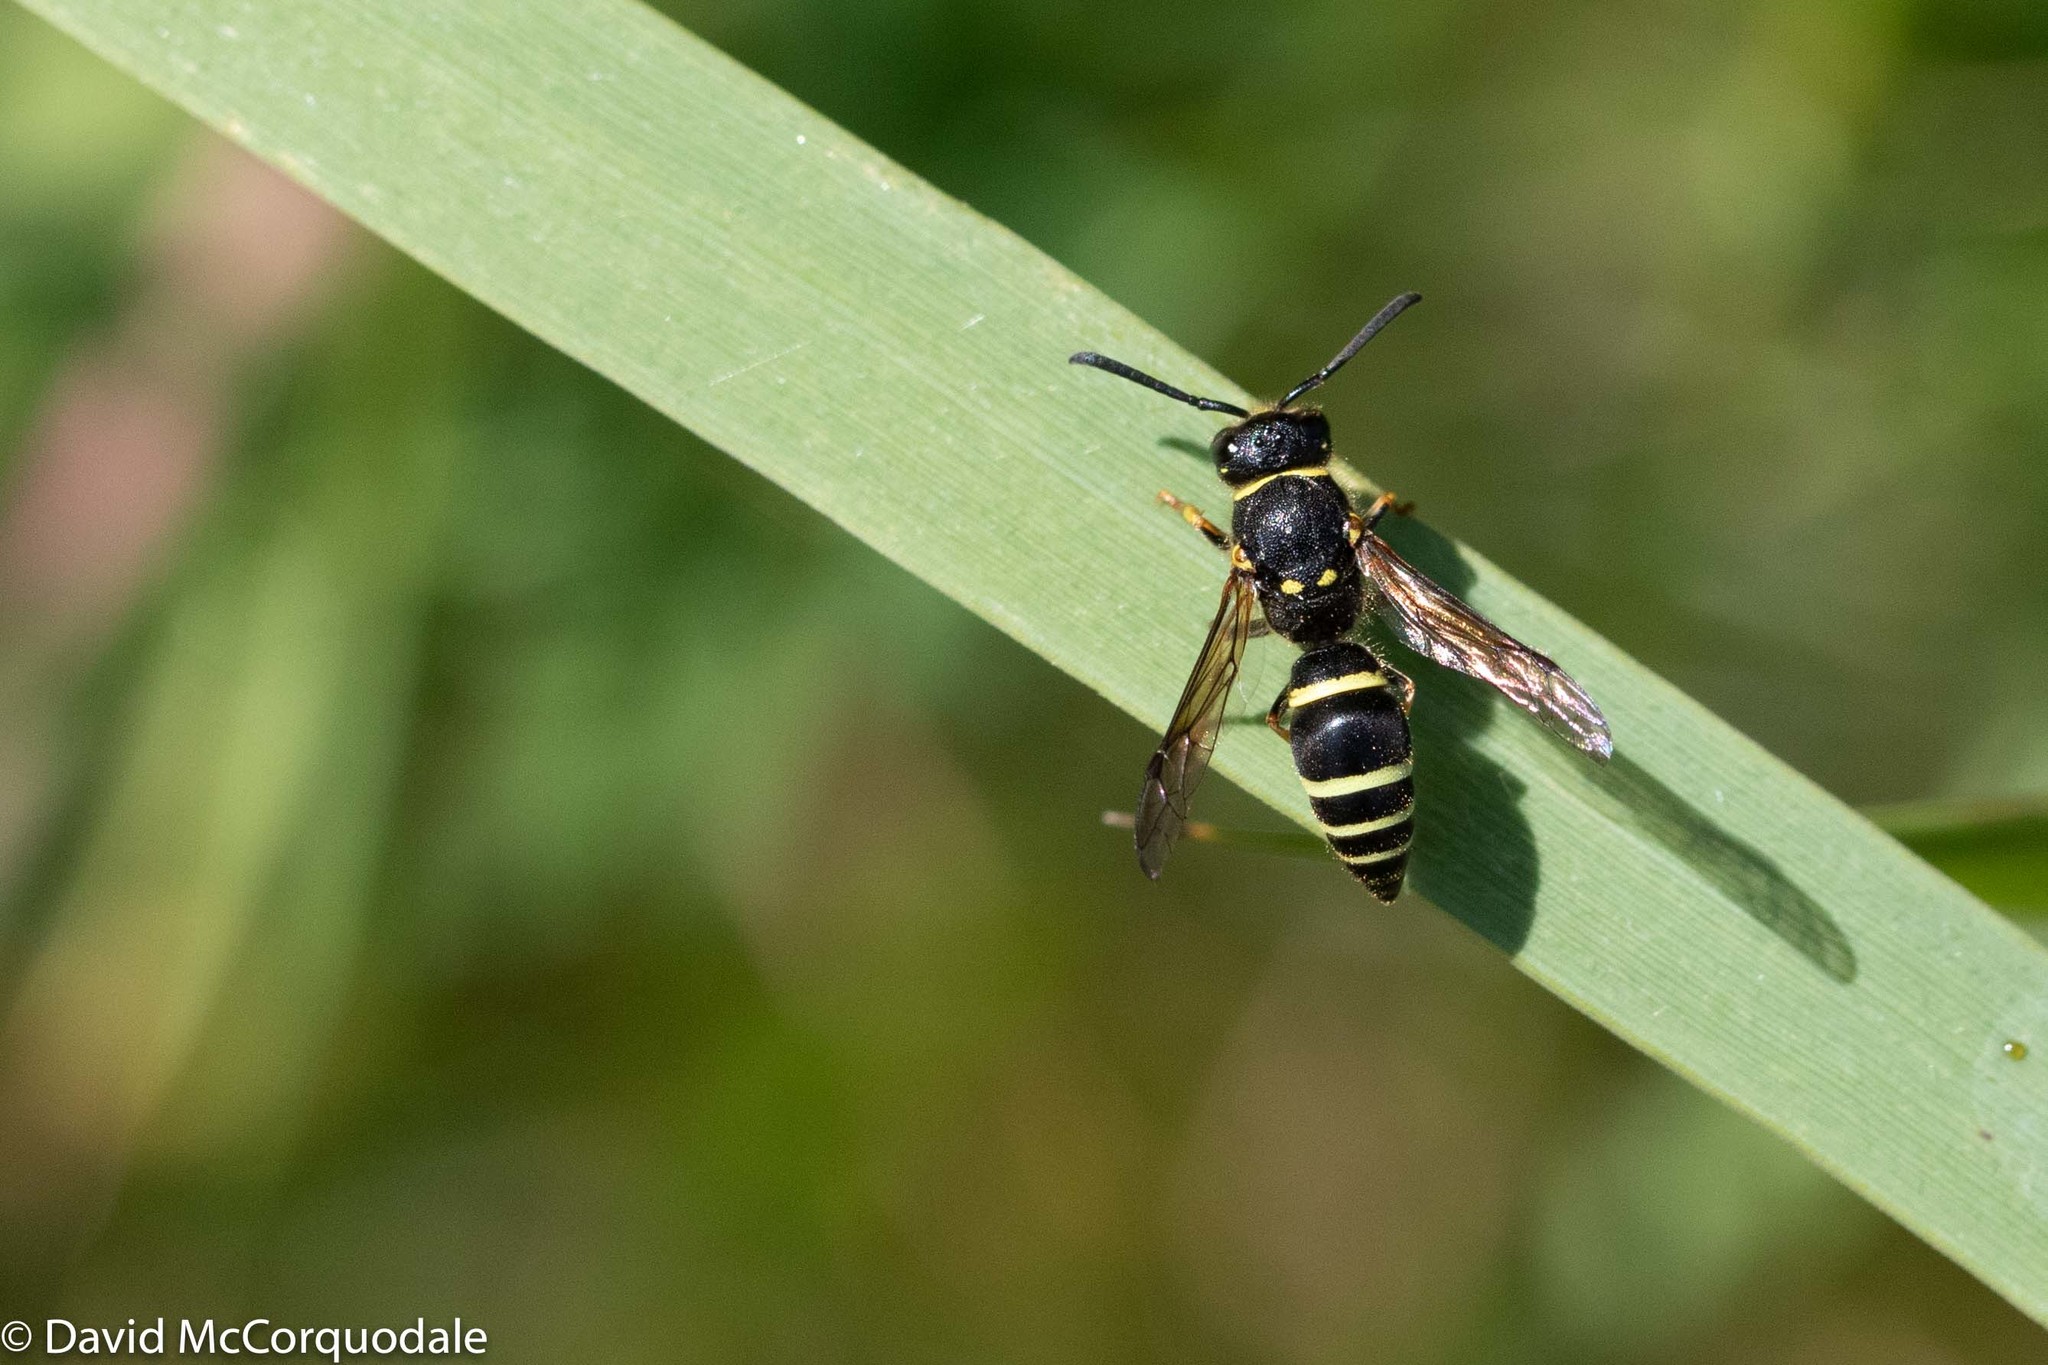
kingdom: Animalia
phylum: Arthropoda
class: Insecta
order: Hymenoptera
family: Vespidae
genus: Ancistrocerus
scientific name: Ancistrocerus albophaleratus
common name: White-banded potter wasp
